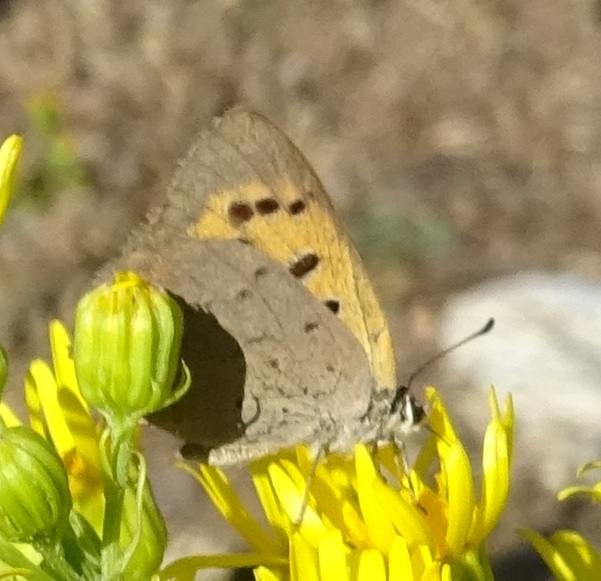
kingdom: Animalia
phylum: Arthropoda
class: Insecta
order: Lepidoptera
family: Lycaenidae
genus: Lycaena
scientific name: Lycaena phlaeas
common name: Small copper
